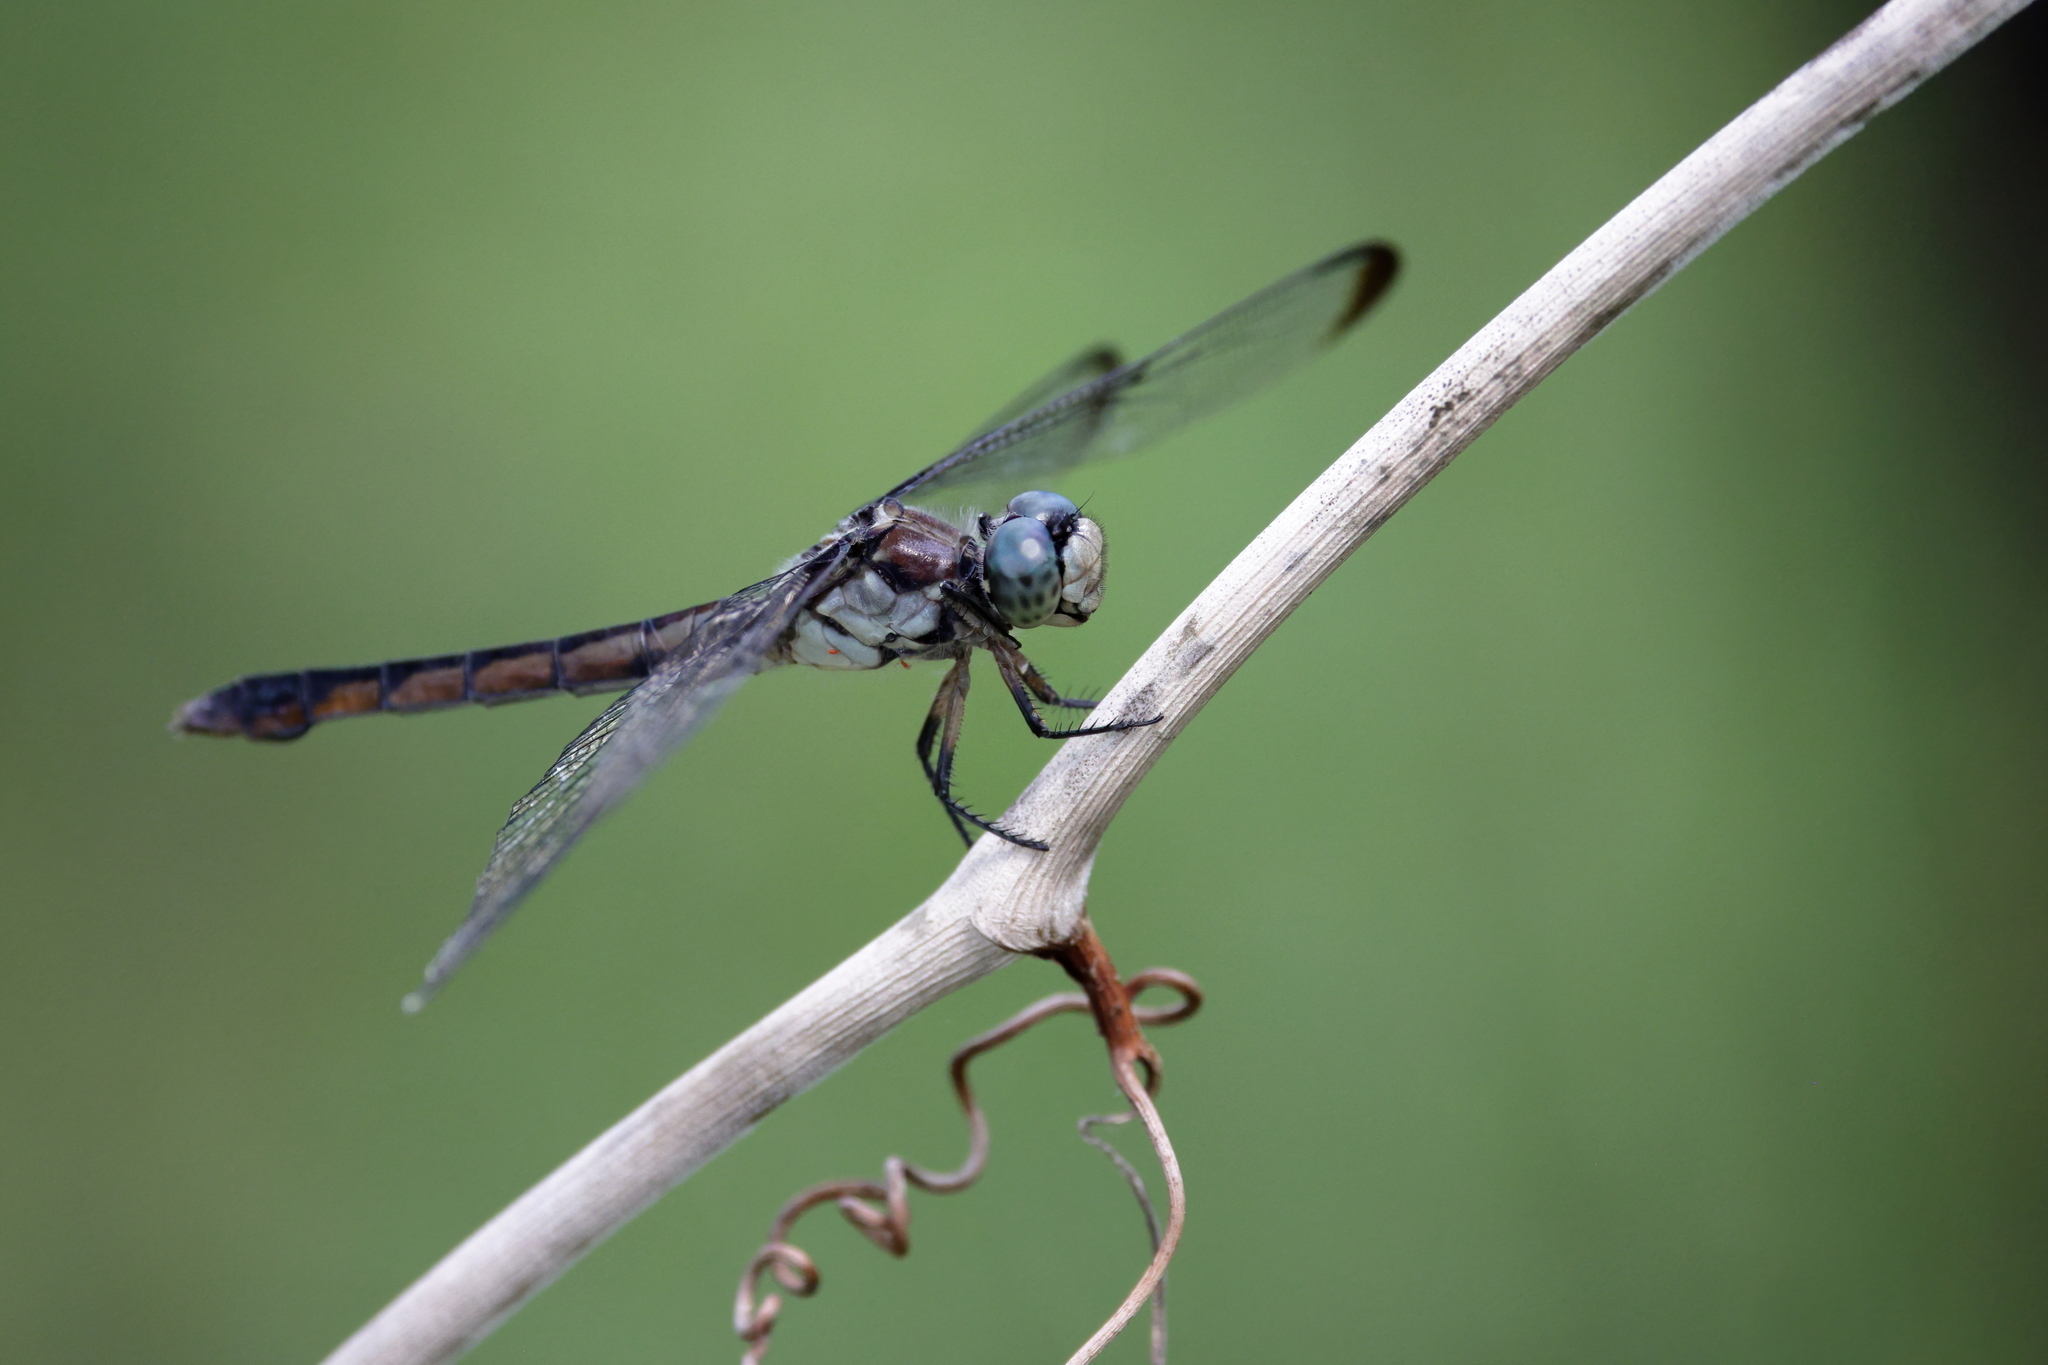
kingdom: Animalia
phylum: Arthropoda
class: Insecta
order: Odonata
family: Libellulidae
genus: Libellula
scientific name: Libellula vibrans
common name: Great blue skimmer
